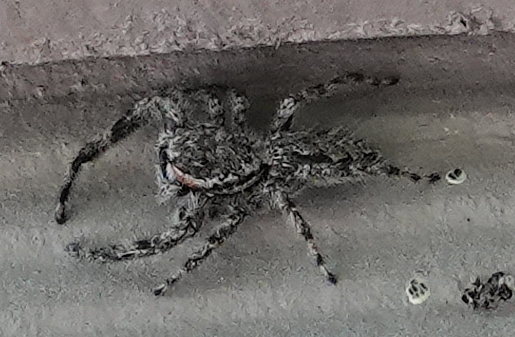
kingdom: Animalia
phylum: Arthropoda
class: Arachnida
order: Araneae
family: Salticidae
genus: Platycryptus
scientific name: Platycryptus undatus
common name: Tan jumping spider
